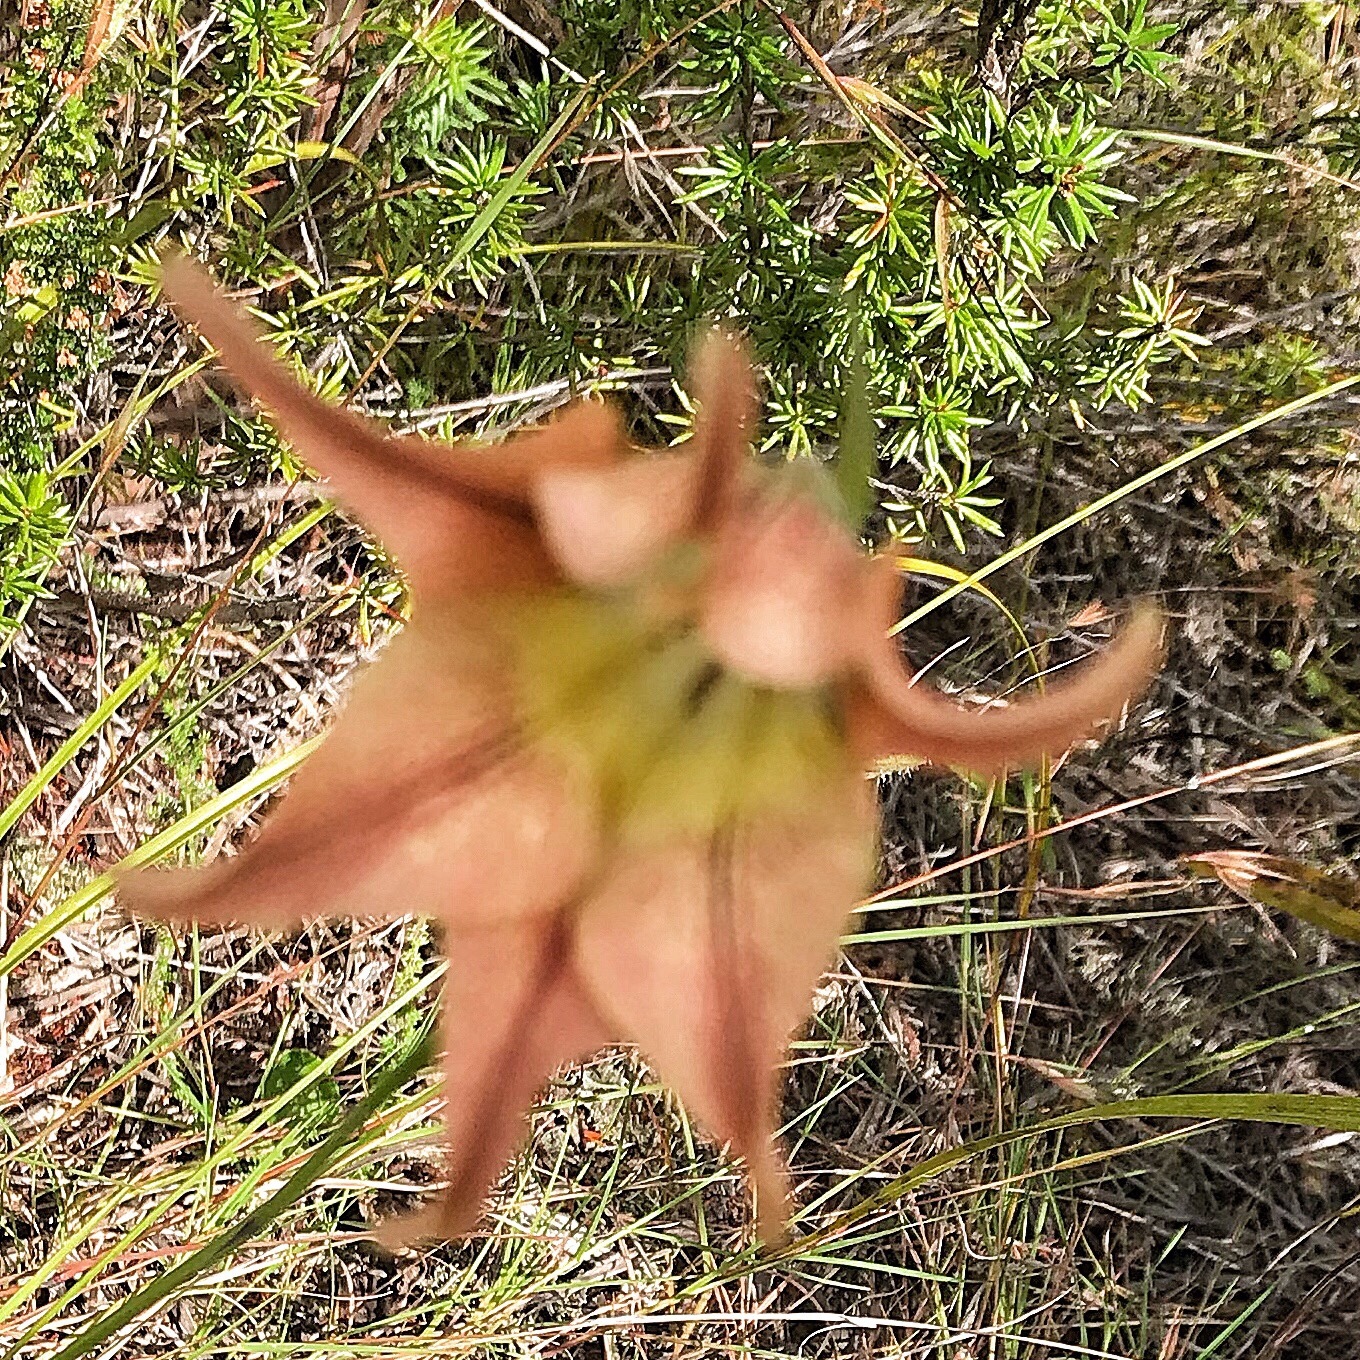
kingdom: Plantae
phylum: Tracheophyta
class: Liliopsida
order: Asparagales
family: Iridaceae
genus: Gladiolus
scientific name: Gladiolus liliaceus
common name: Large brown afrikaner
